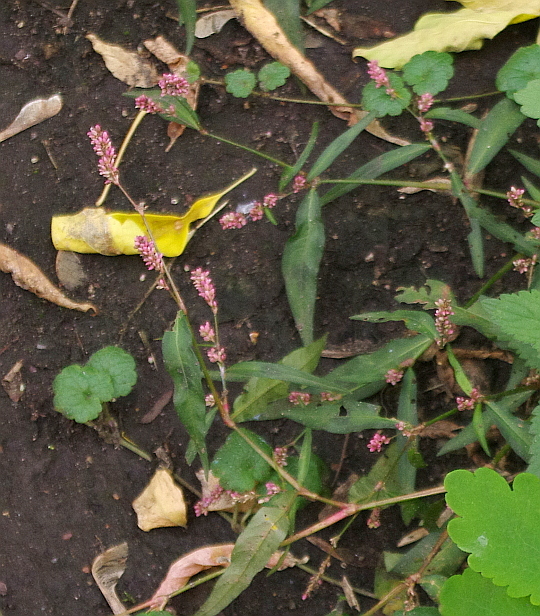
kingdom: Plantae
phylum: Tracheophyta
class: Magnoliopsida
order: Caryophyllales
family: Polygonaceae
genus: Persicaria
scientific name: Persicaria maculosa
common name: Redshank
